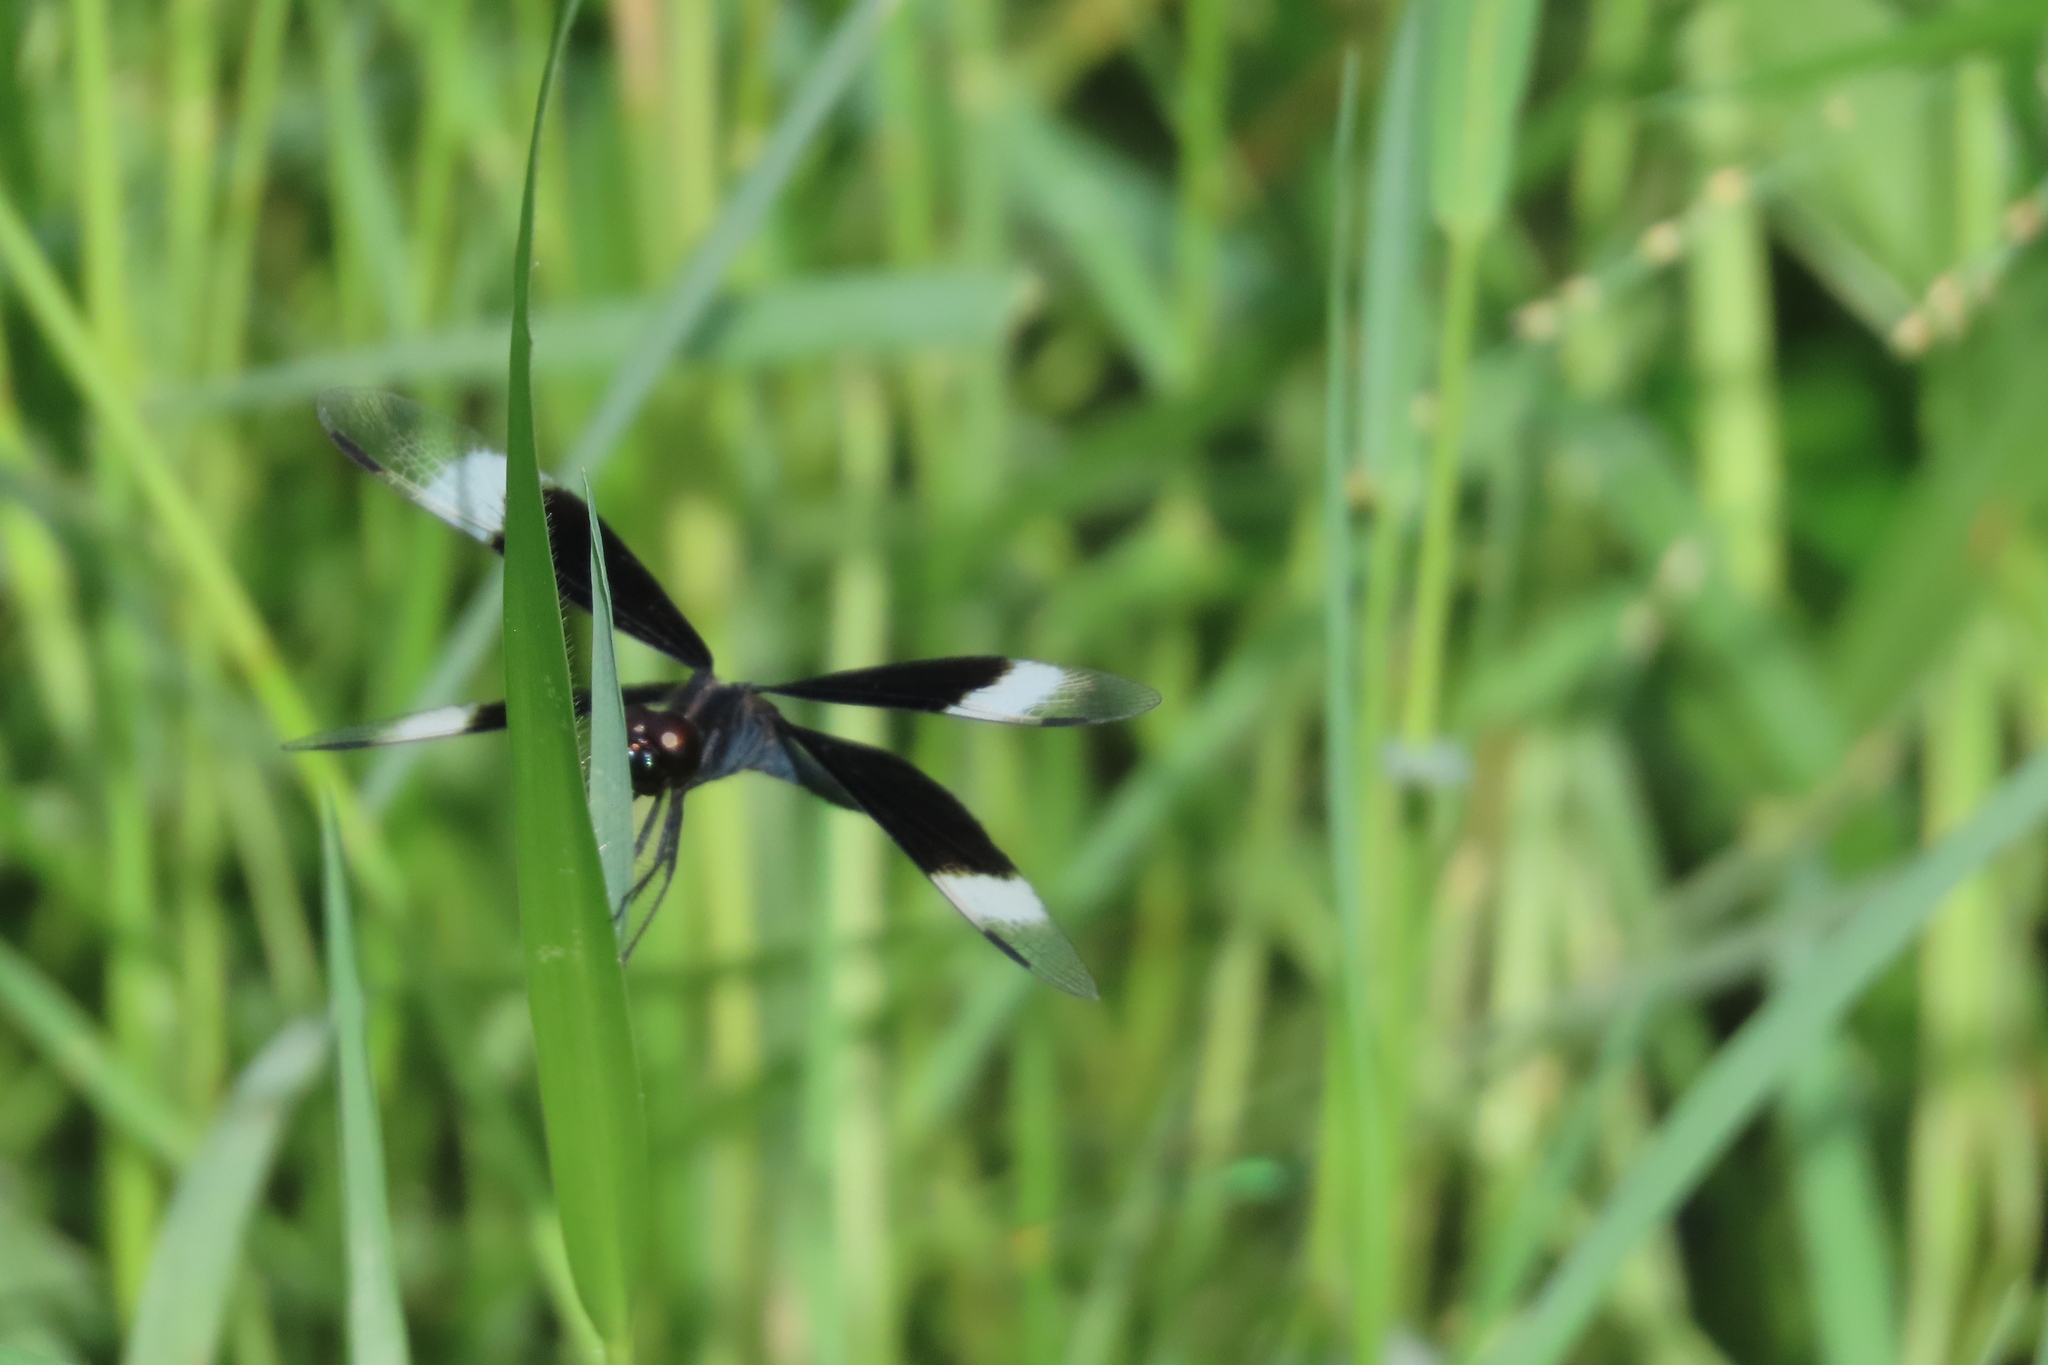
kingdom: Animalia
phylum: Arthropoda
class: Insecta
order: Odonata
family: Libellulidae
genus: Neurothemis
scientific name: Neurothemis tullia
